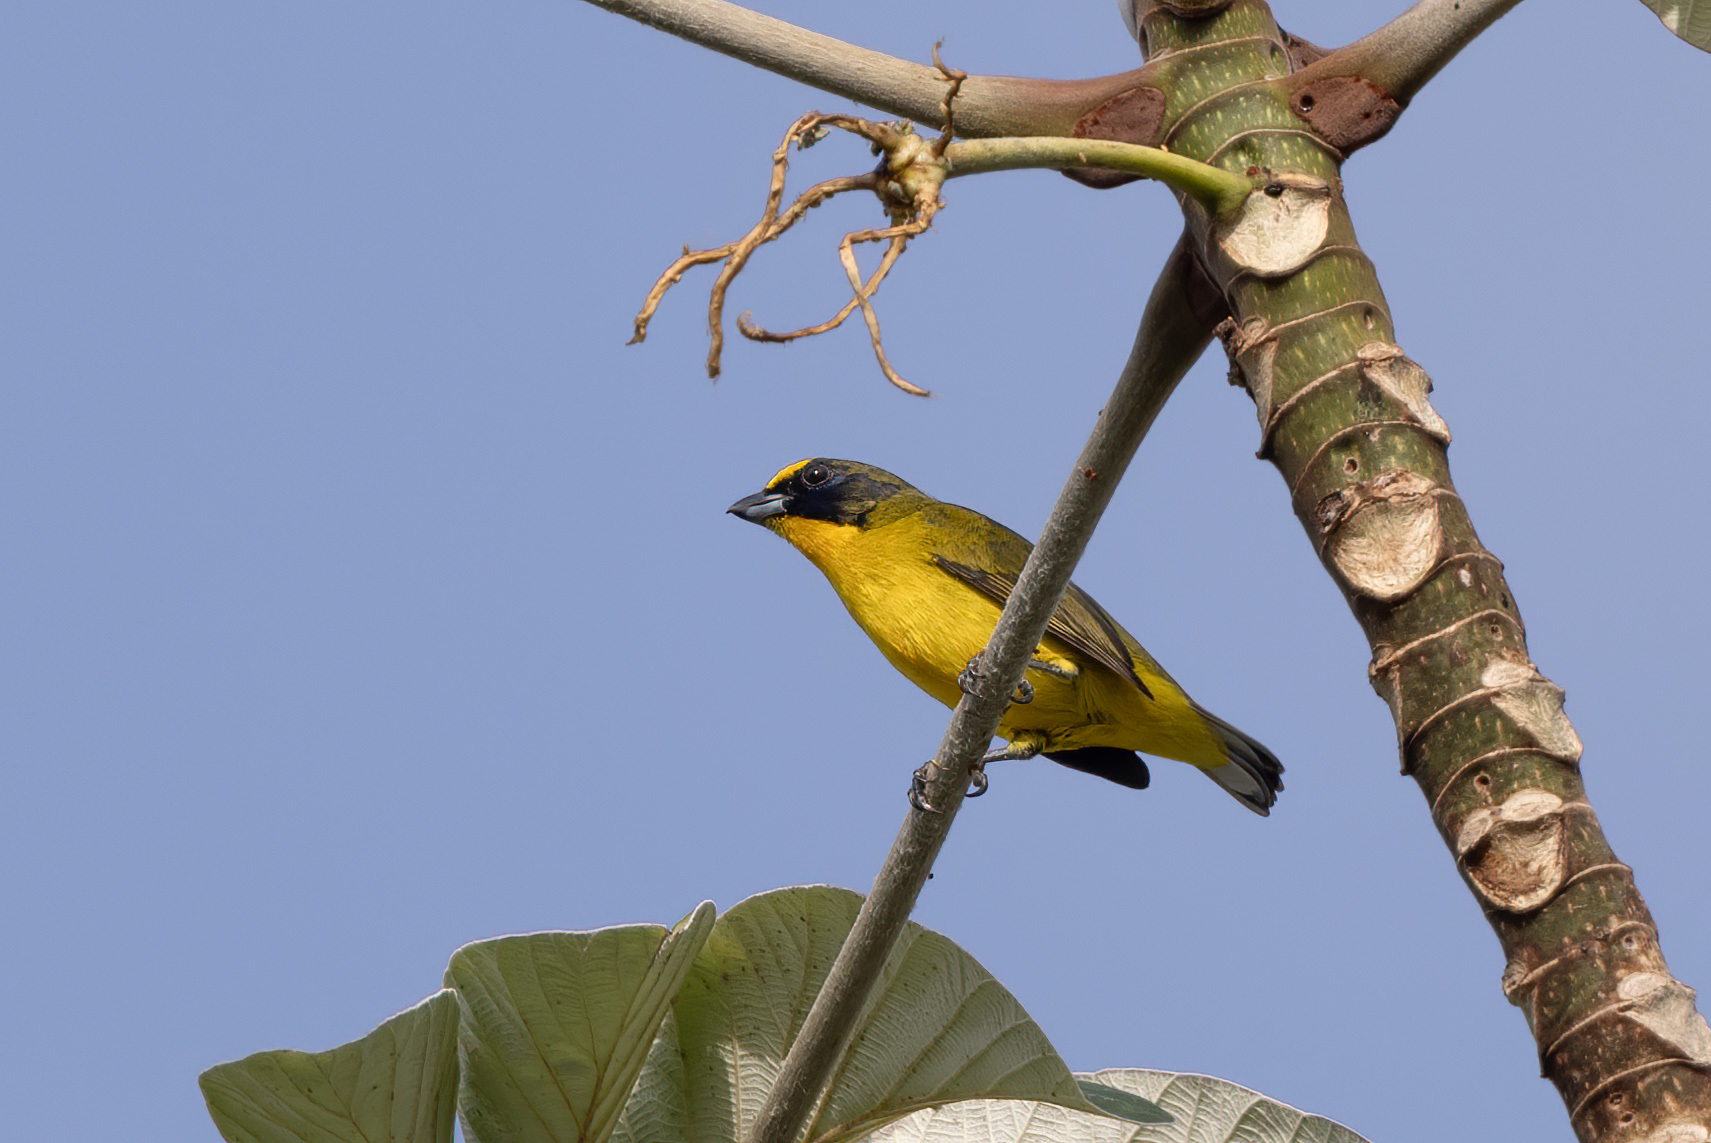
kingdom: Animalia
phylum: Chordata
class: Aves
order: Passeriformes
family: Fringillidae
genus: Euphonia
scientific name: Euphonia laniirostris
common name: Thick-billed euphonia
